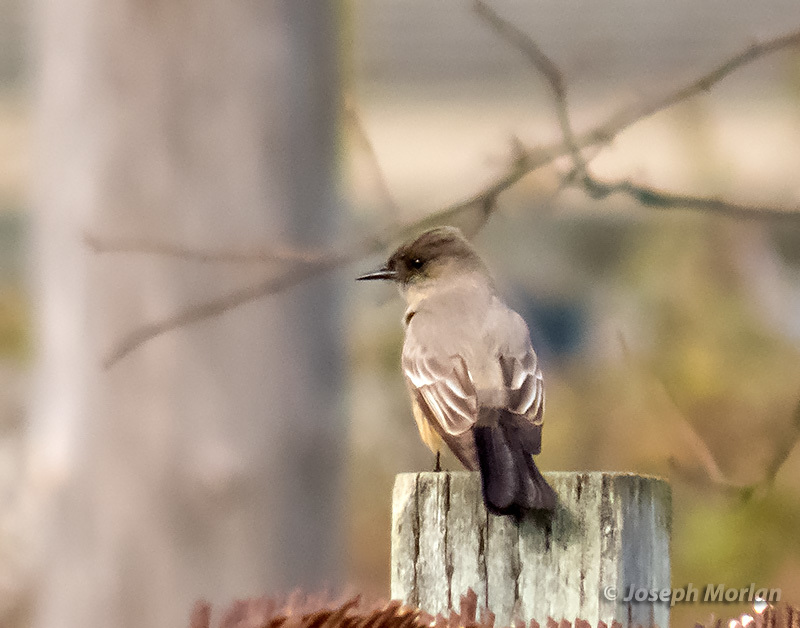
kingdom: Animalia
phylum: Chordata
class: Aves
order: Passeriformes
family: Tyrannidae
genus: Sayornis
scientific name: Sayornis saya
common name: Say's phoebe
